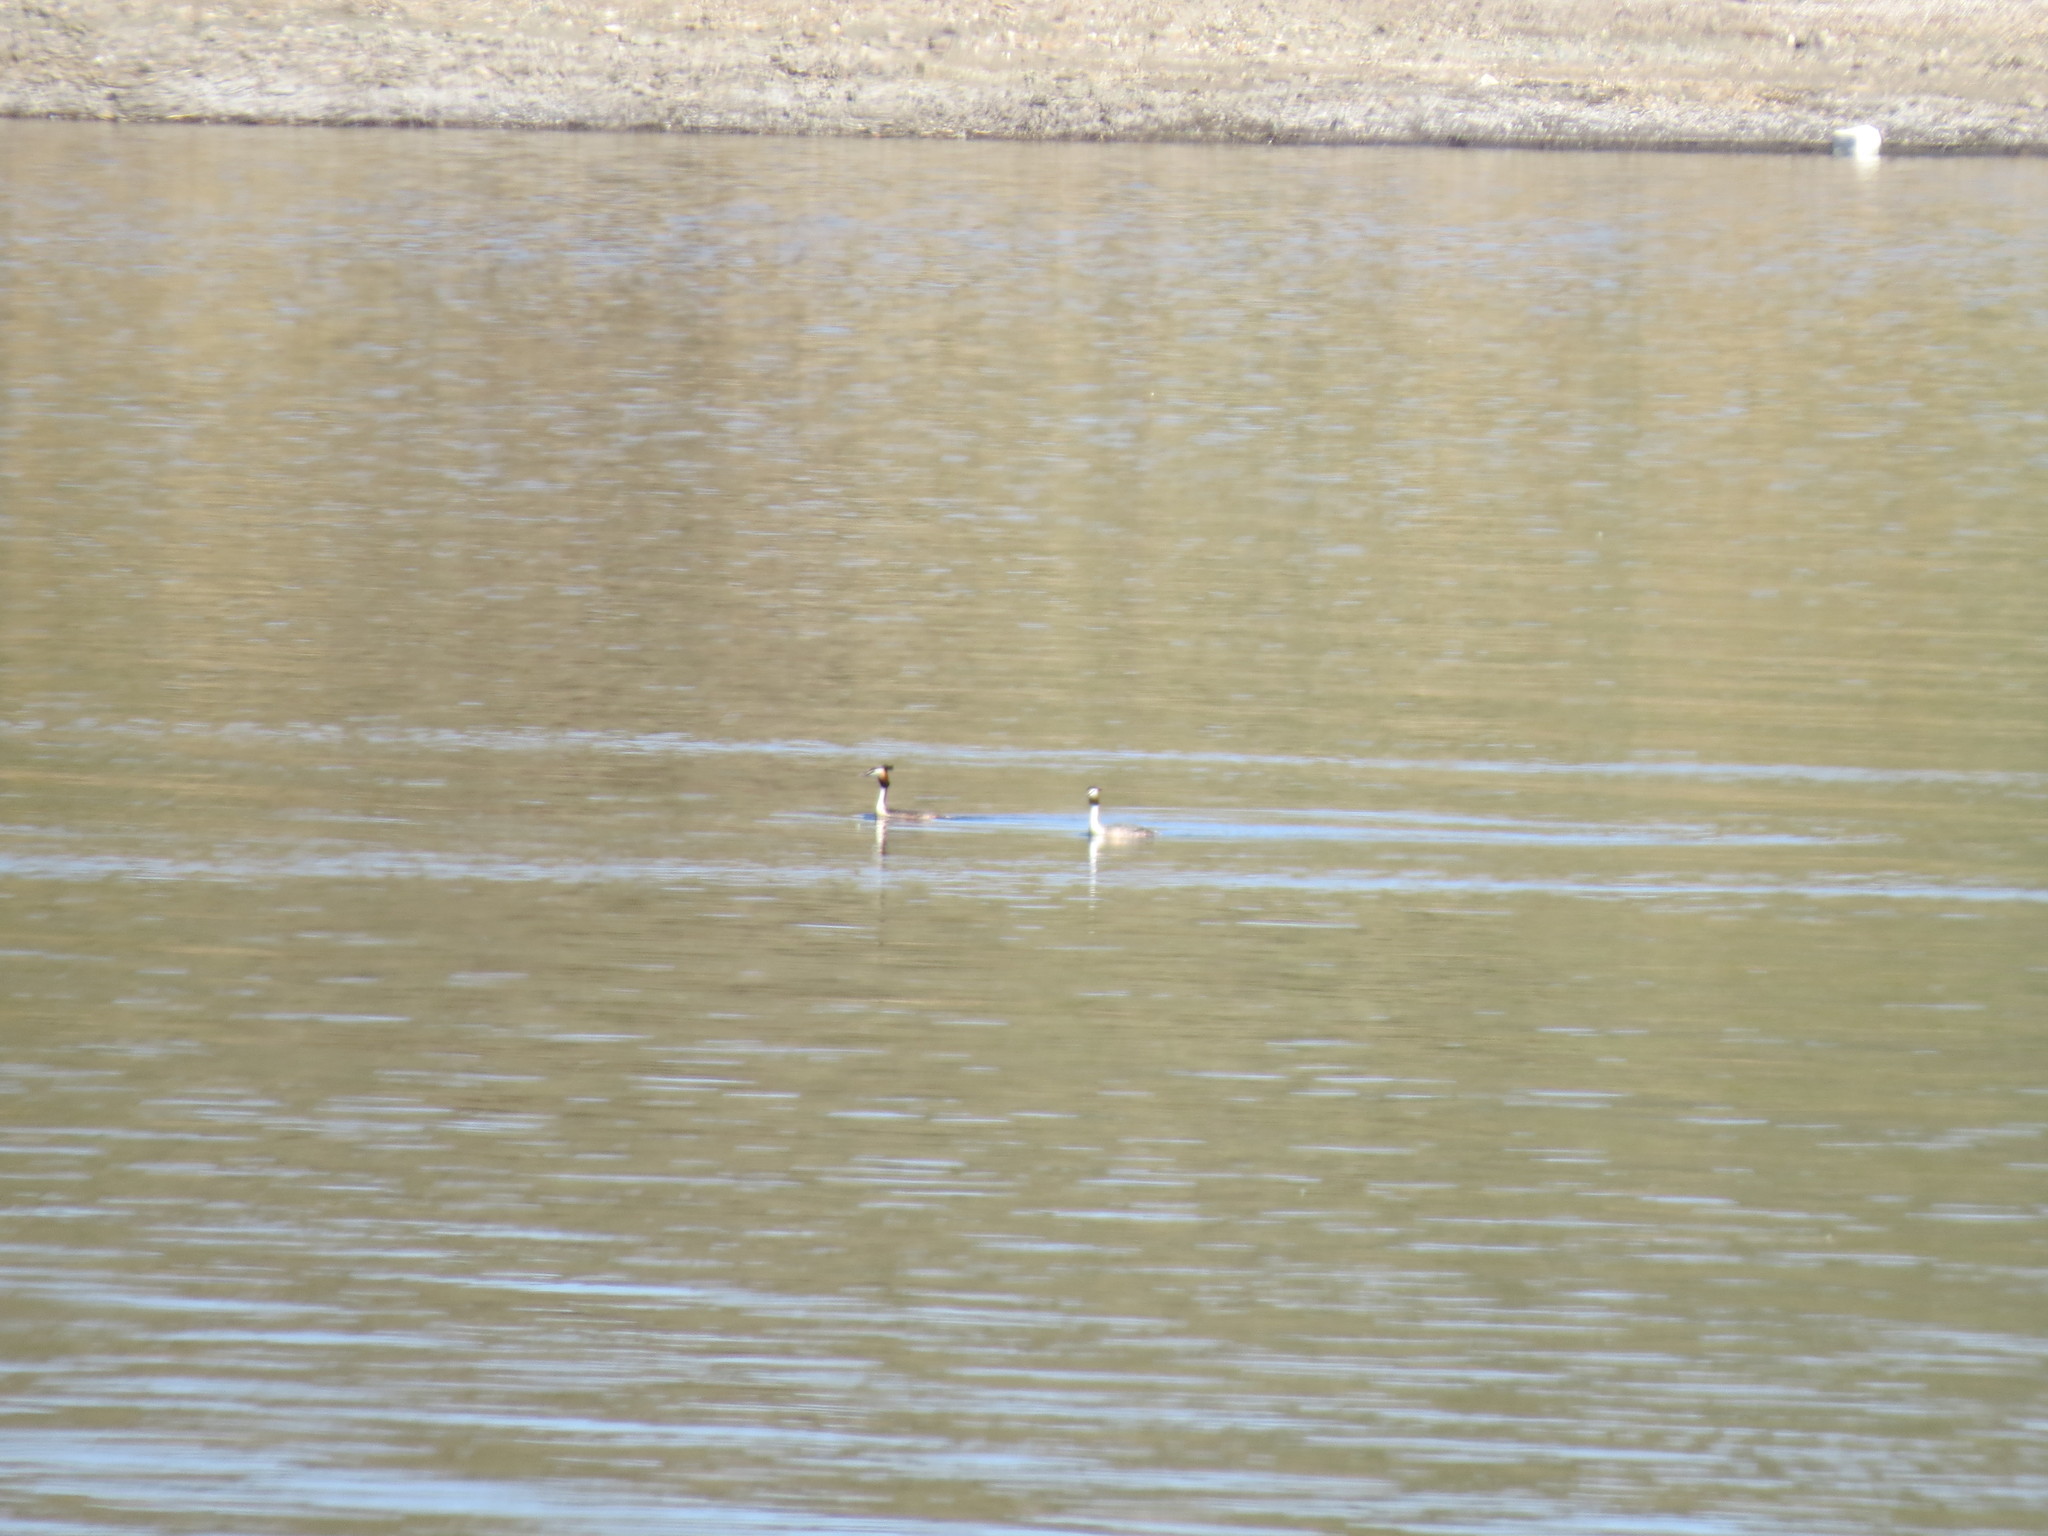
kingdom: Animalia
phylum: Chordata
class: Aves
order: Podicipediformes
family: Podicipedidae
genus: Podiceps
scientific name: Podiceps cristatus
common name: Great crested grebe
